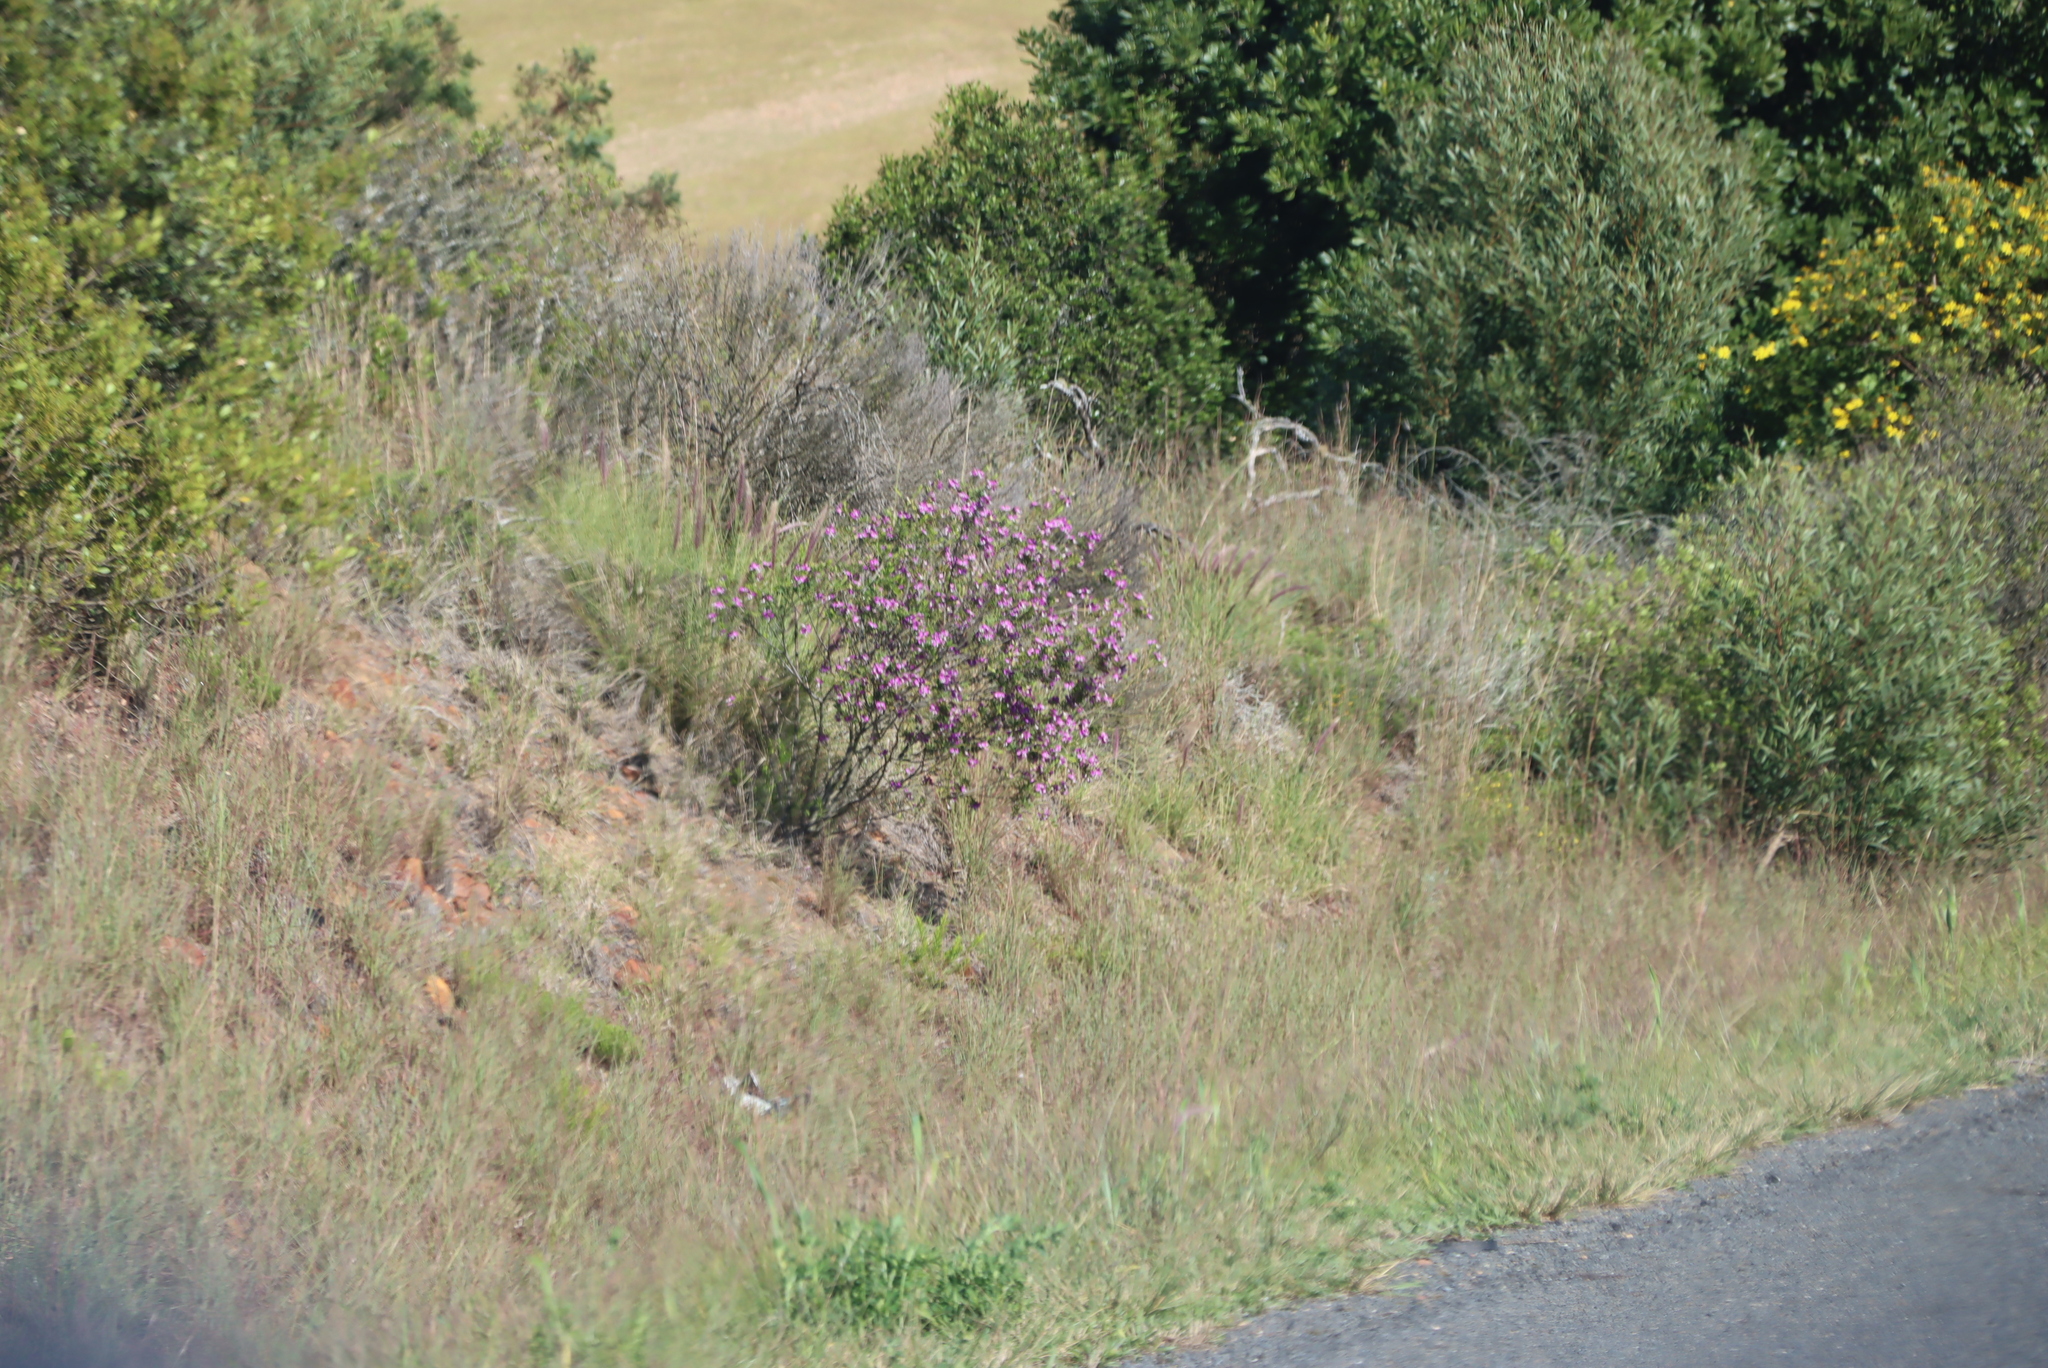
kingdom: Plantae
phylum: Tracheophyta
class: Magnoliopsida
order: Fabales
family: Polygalaceae
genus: Polygala
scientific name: Polygala myrtifolia
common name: Myrtle-leaf milkwort
